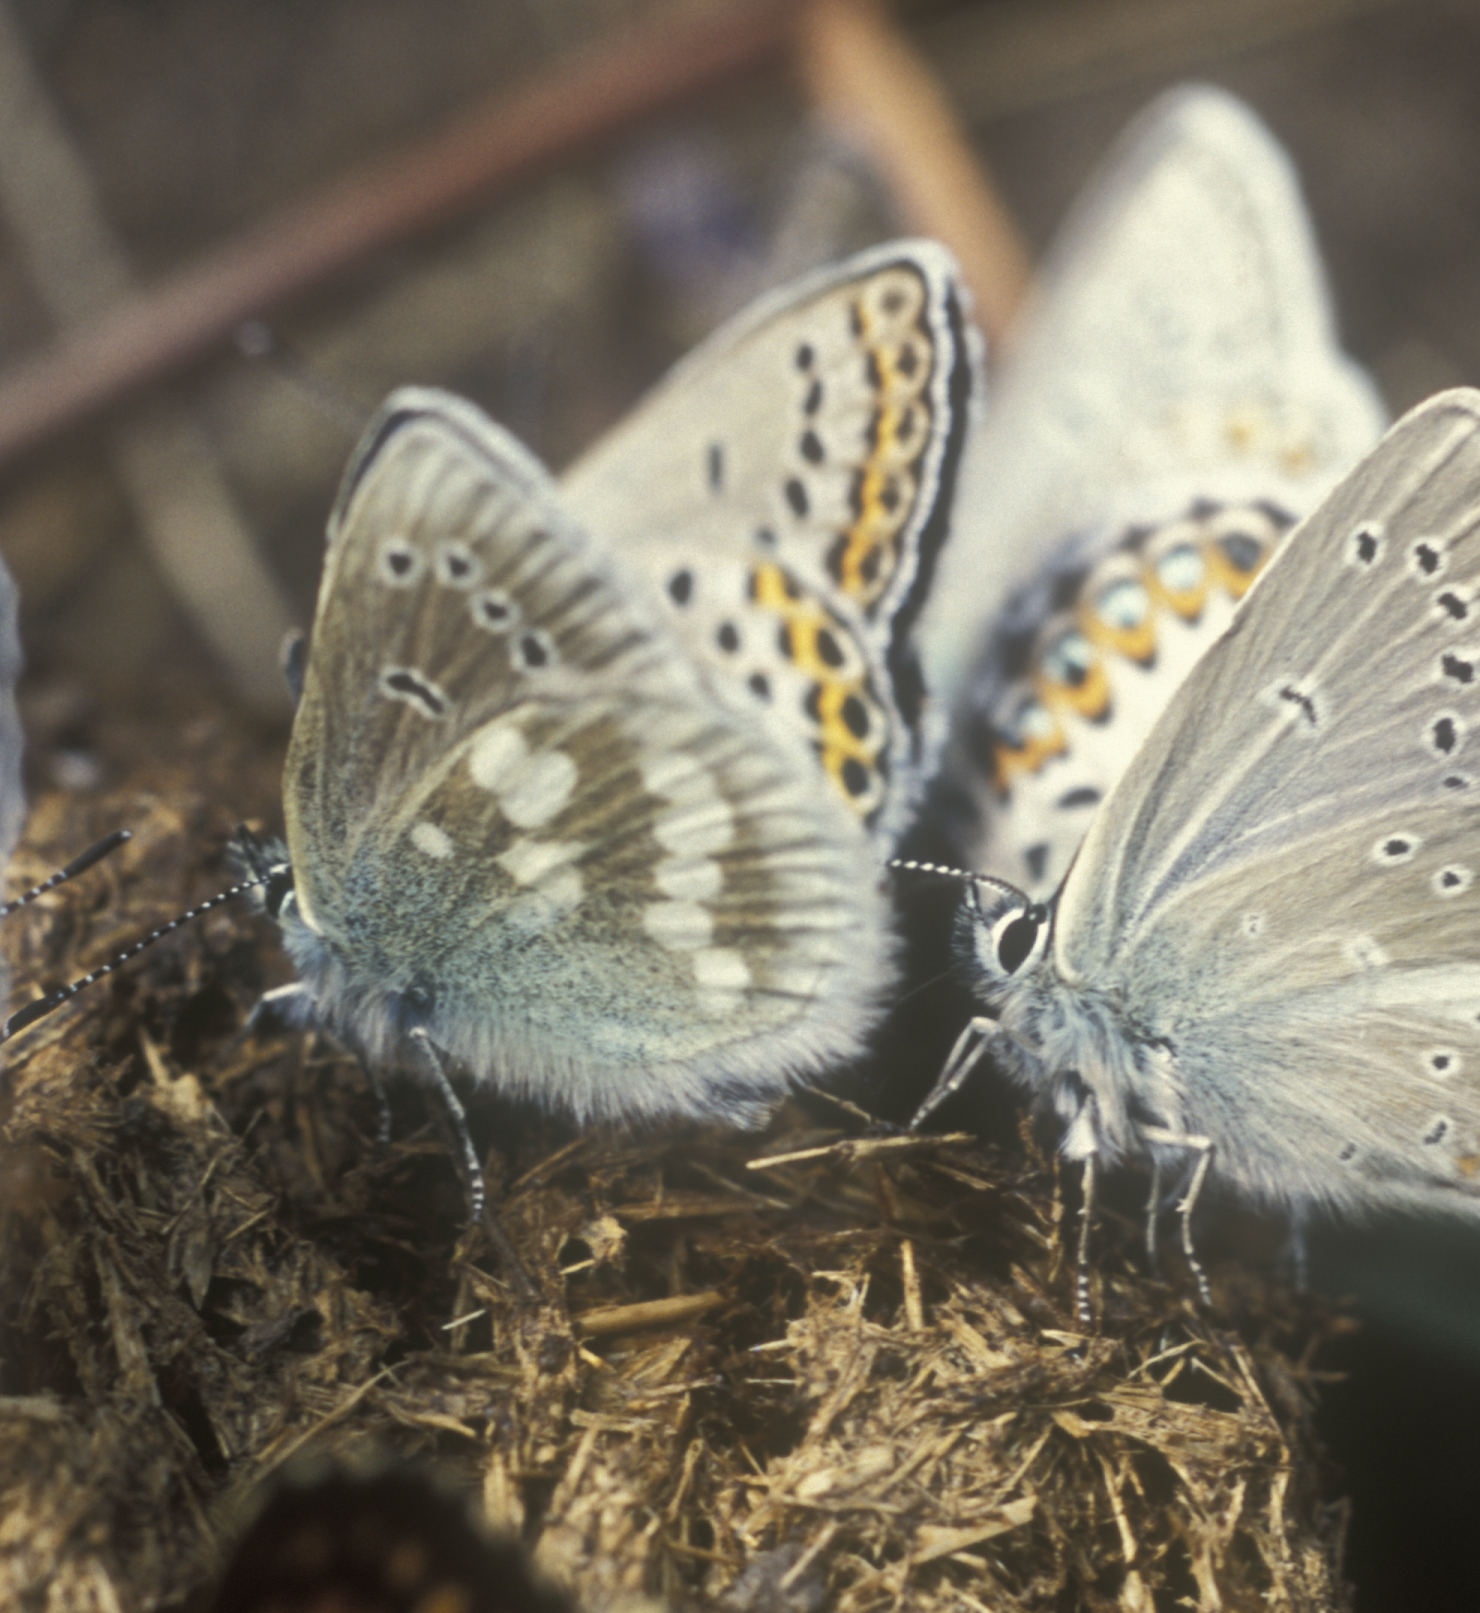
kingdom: Animalia
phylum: Arthropoda
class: Insecta
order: Lepidoptera
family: Lycaenidae
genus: Albulina
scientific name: Albulina orbitulus
